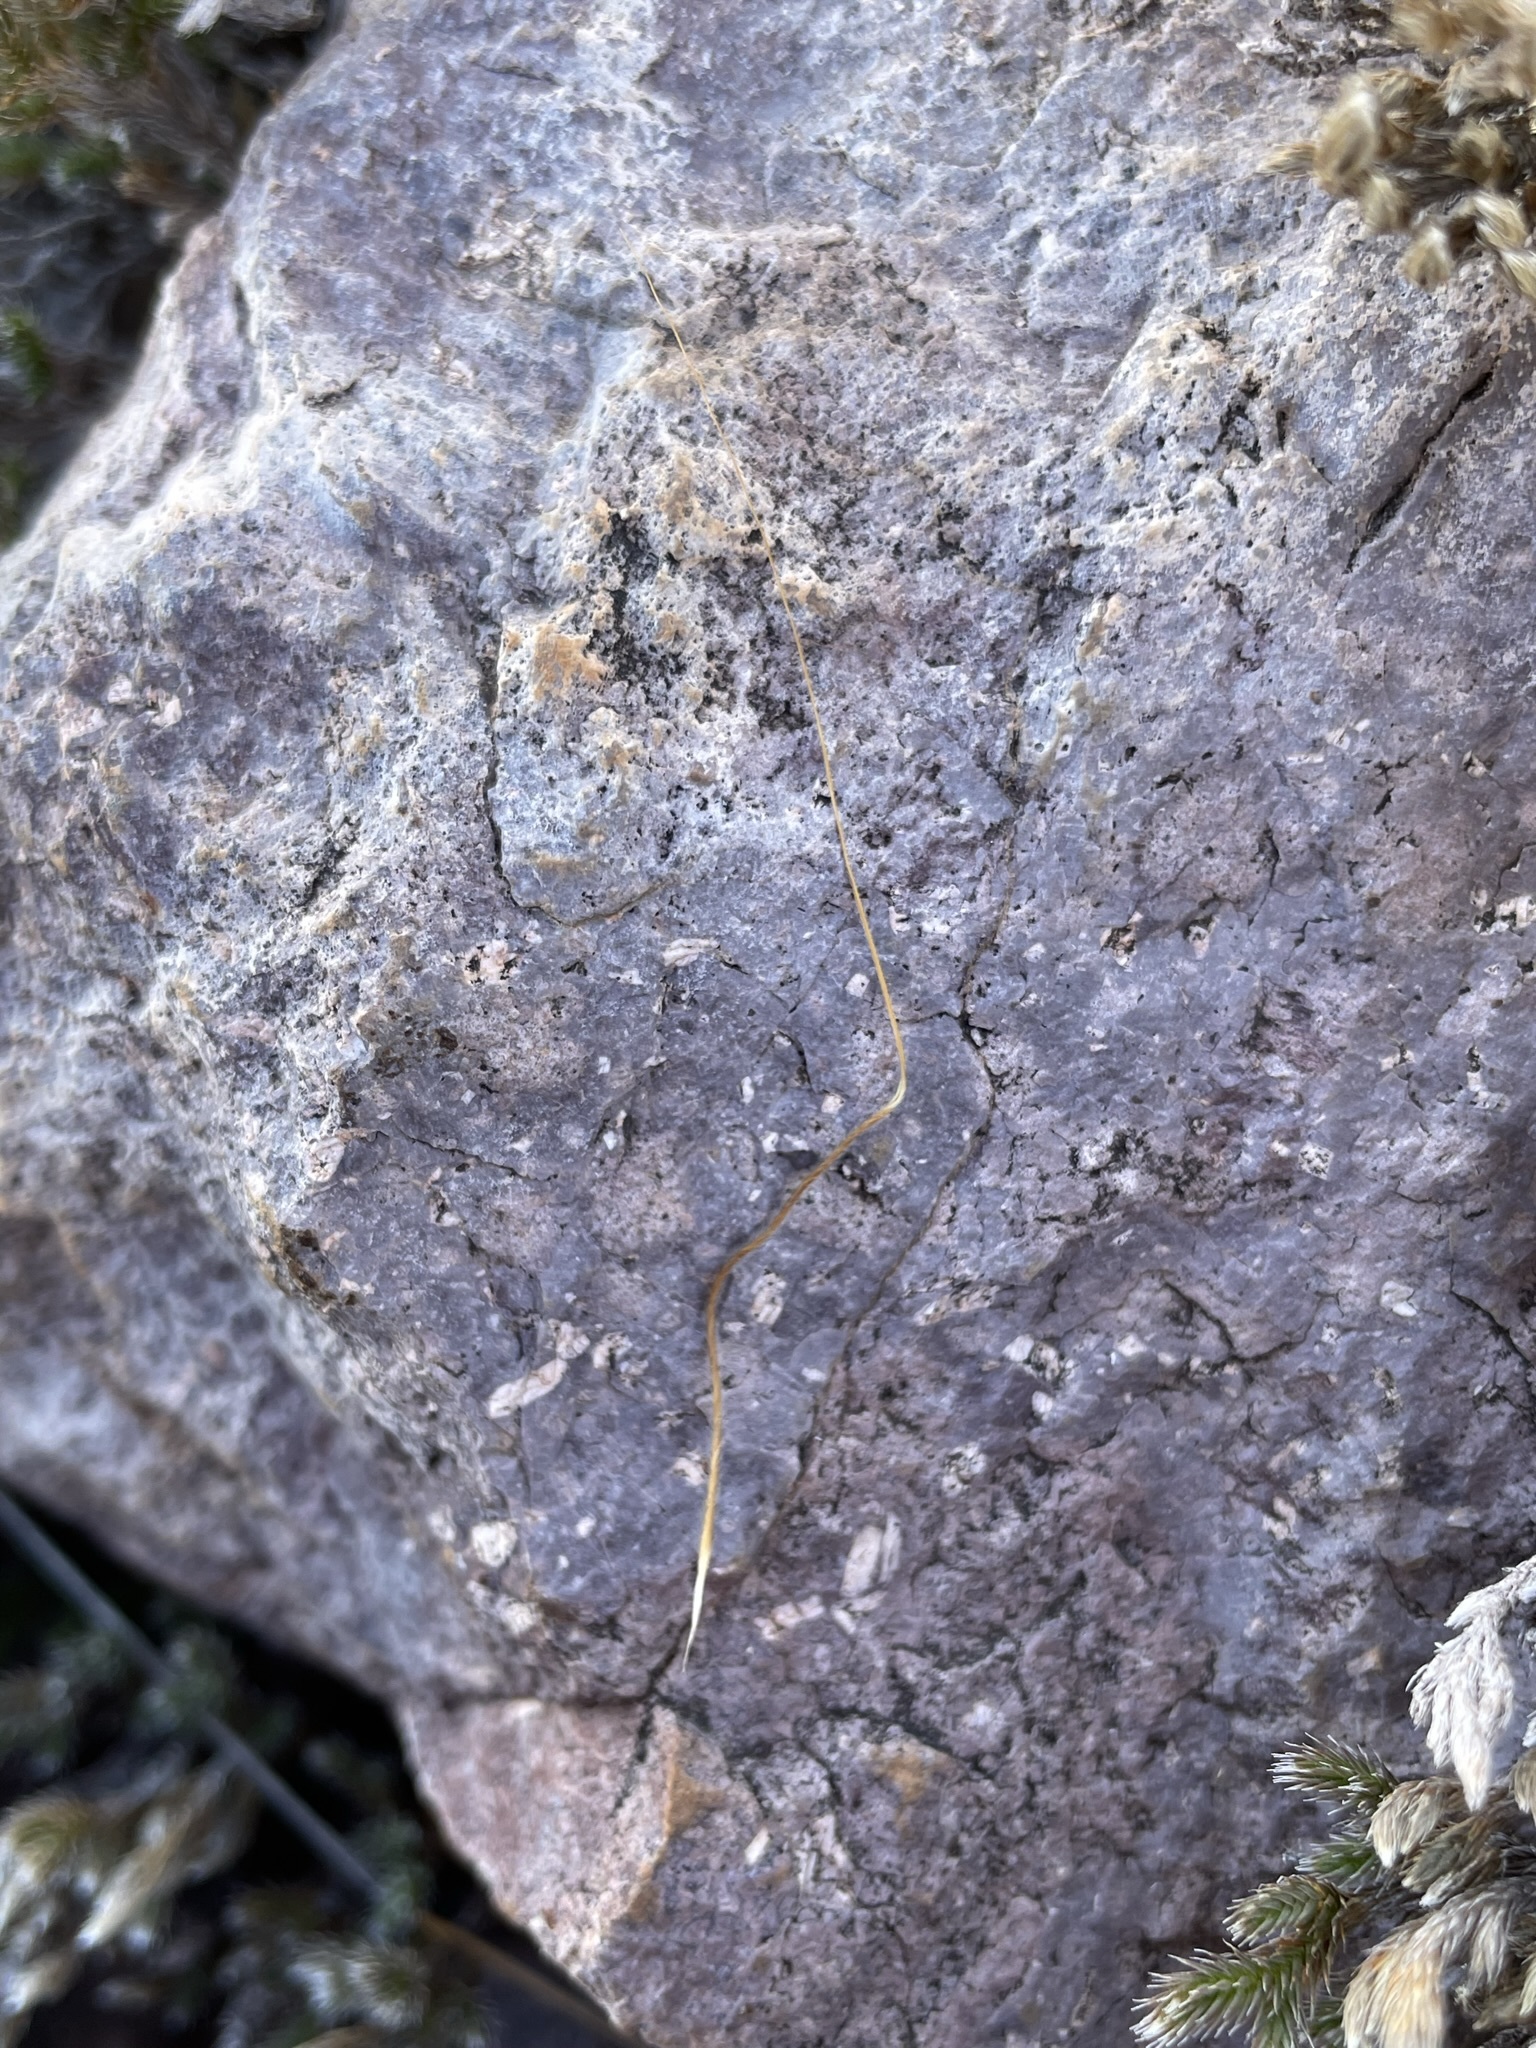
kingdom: Plantae
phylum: Tracheophyta
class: Liliopsida
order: Poales
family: Poaceae
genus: Heteropogon
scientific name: Heteropogon contortus
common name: Tanglehead
